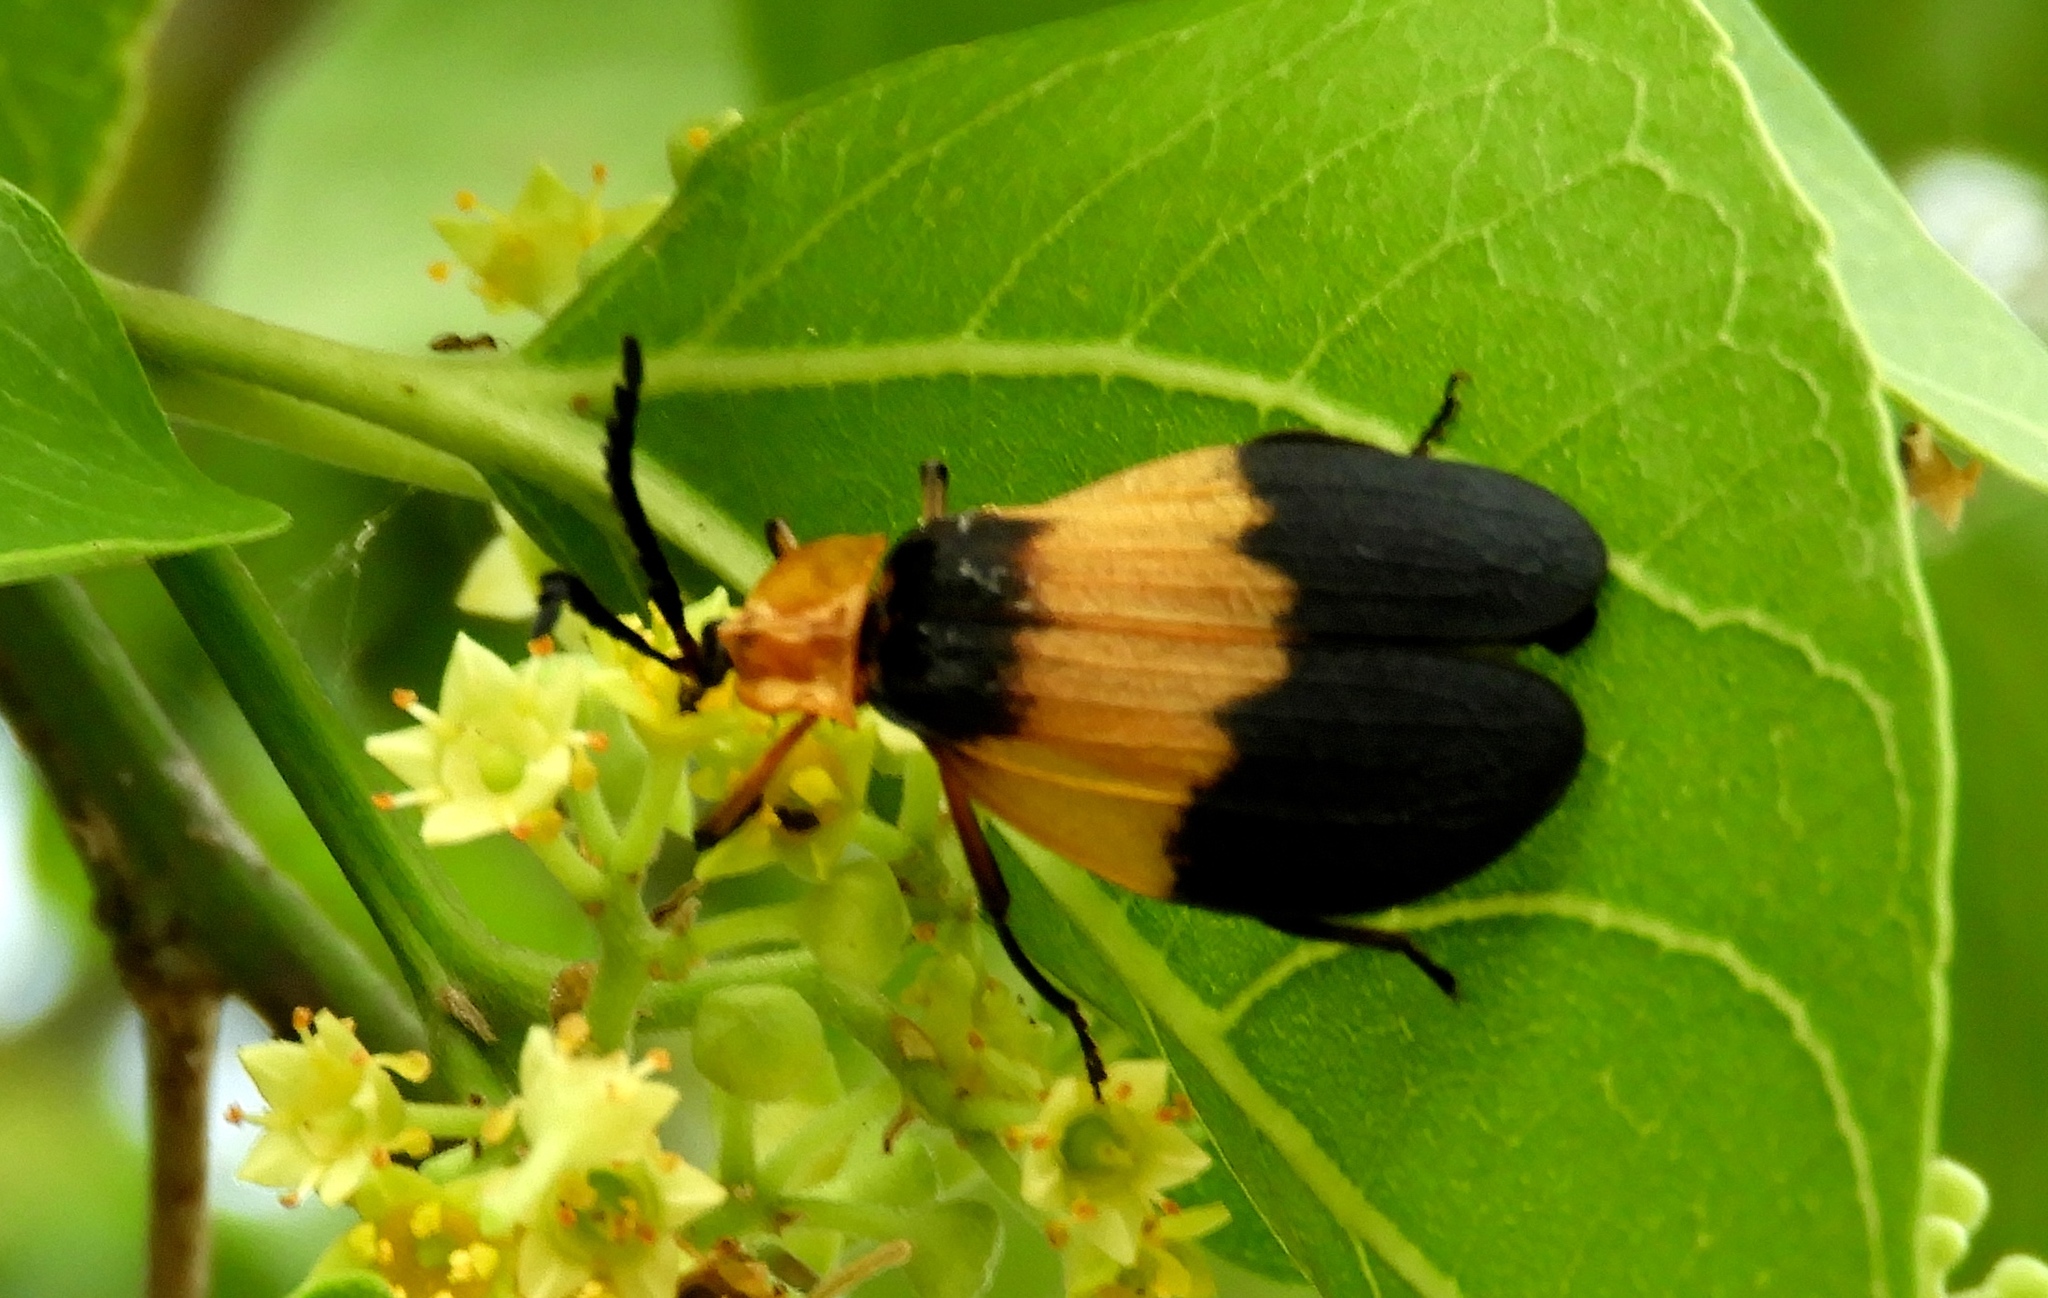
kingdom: Animalia
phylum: Arthropoda
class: Insecta
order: Coleoptera
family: Lycidae
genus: Lycus
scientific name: Lycus
